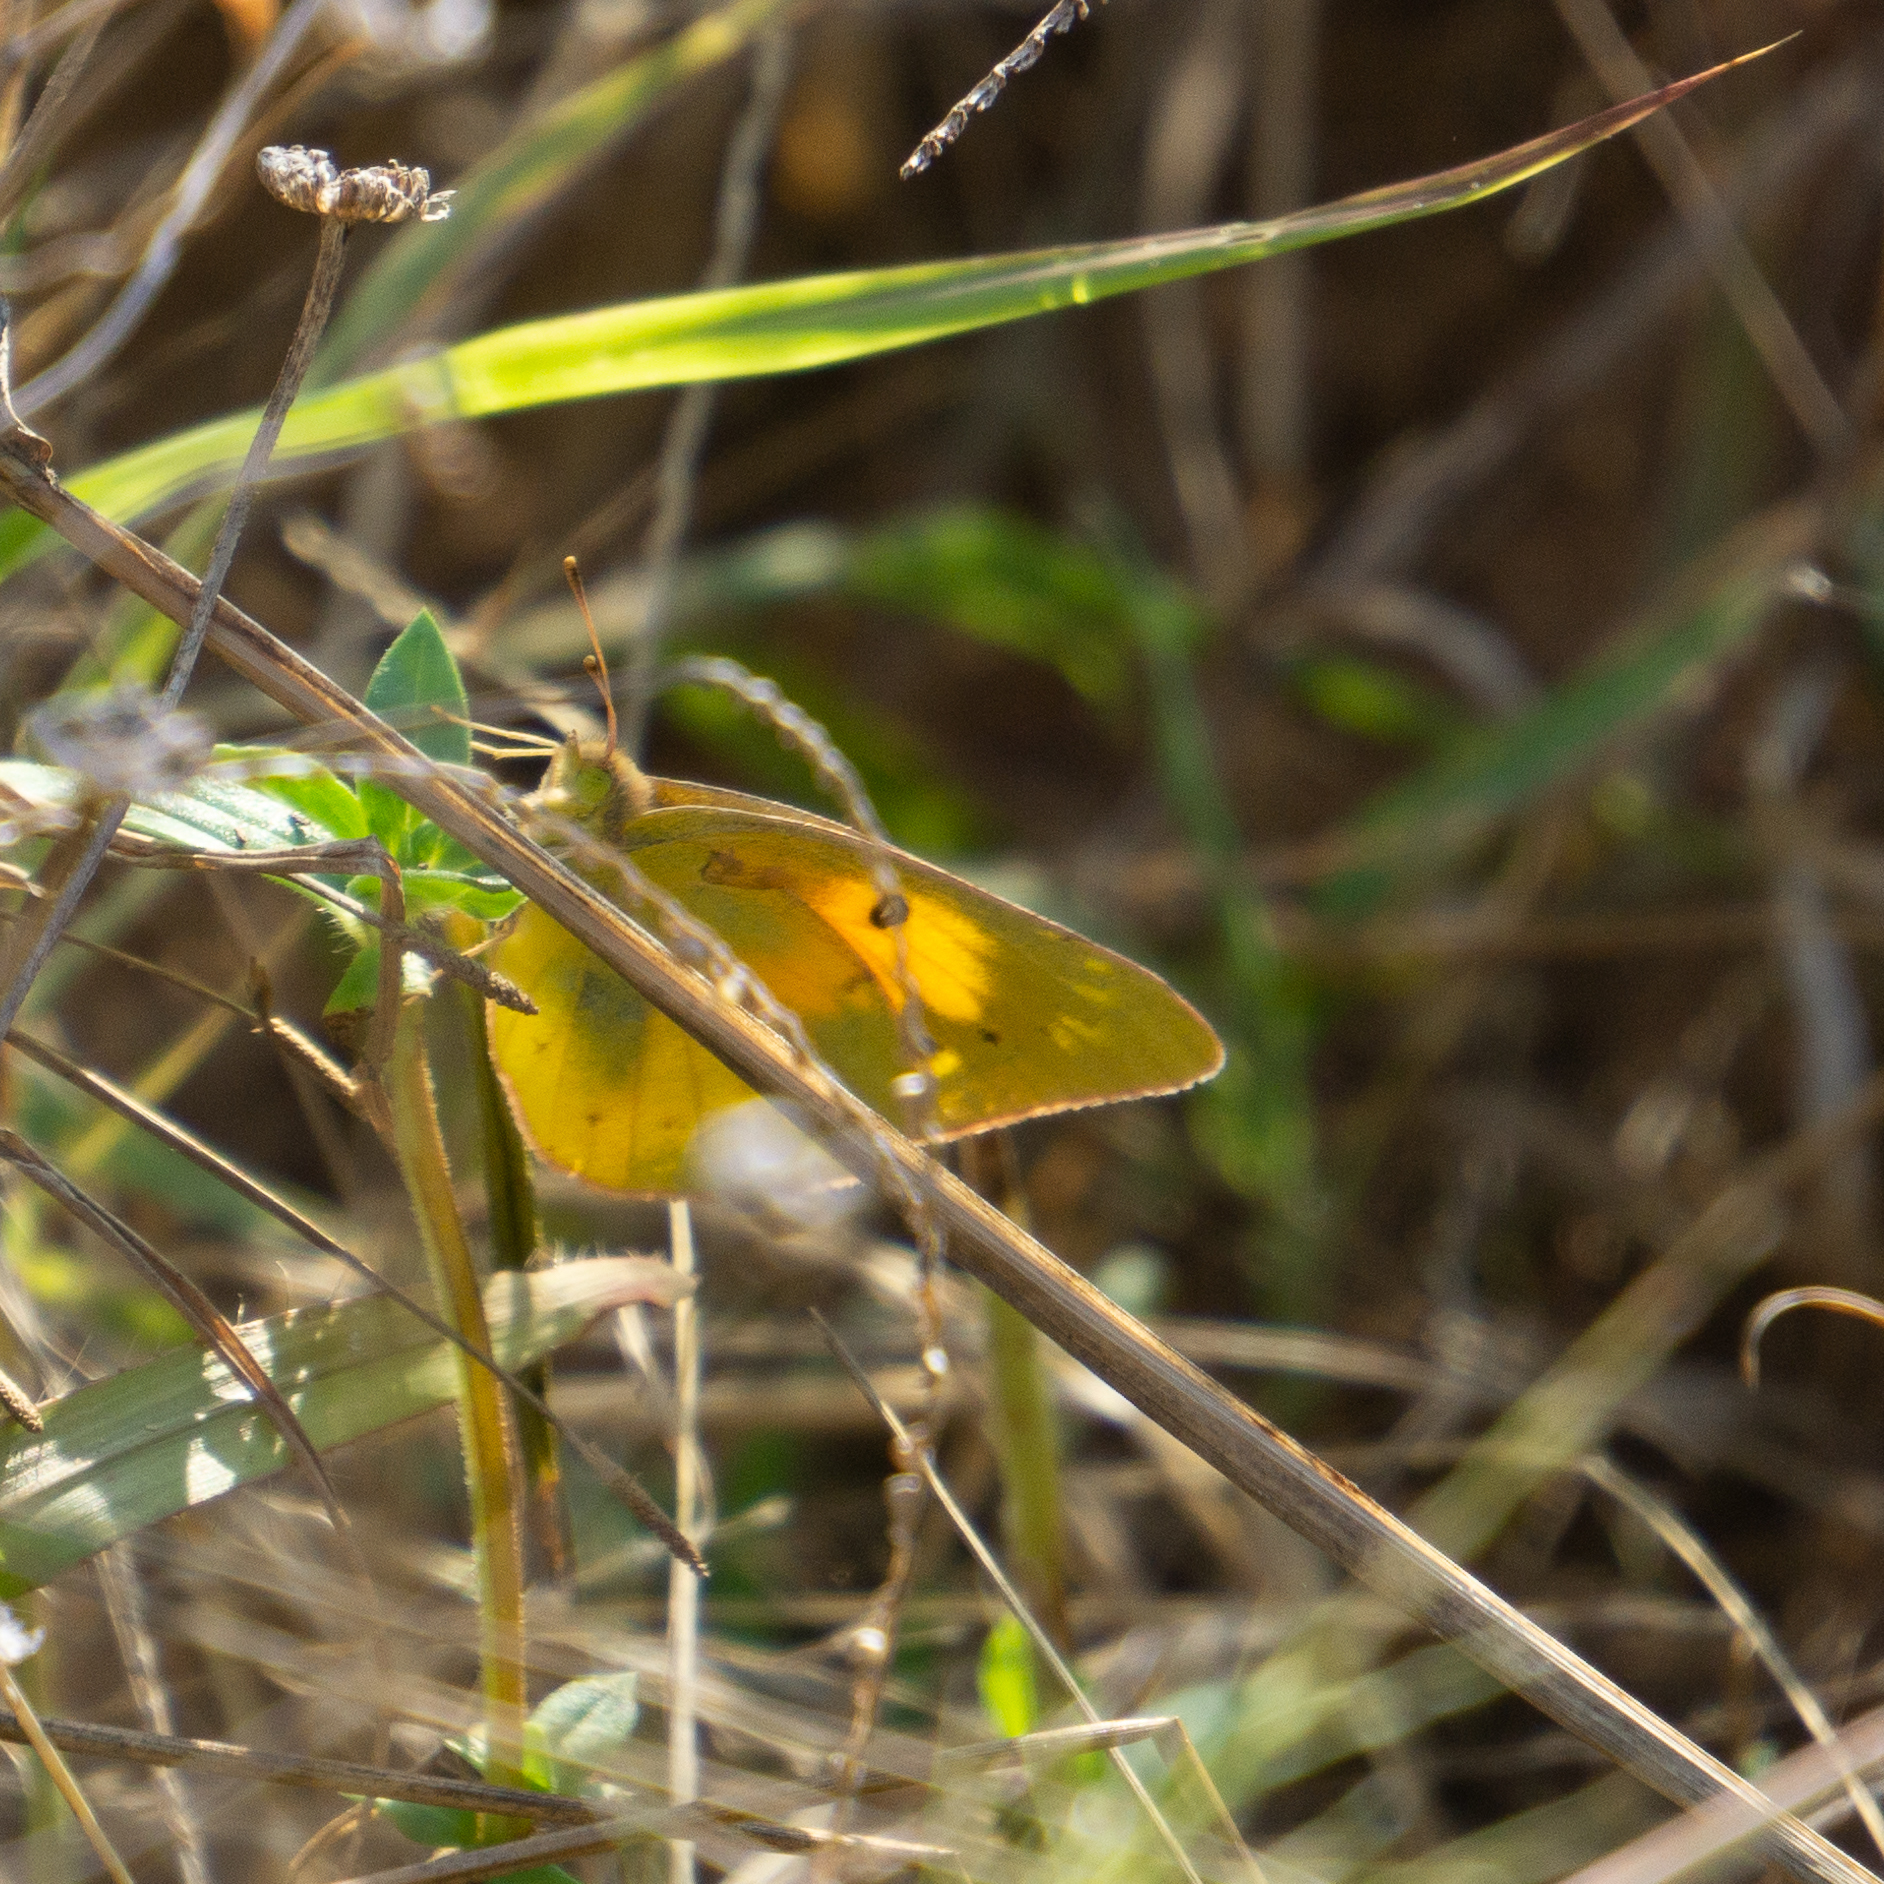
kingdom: Animalia
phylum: Arthropoda
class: Insecta
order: Lepidoptera
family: Pieridae
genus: Colias
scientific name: Colias eurytheme
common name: Alfalfa butterfly
